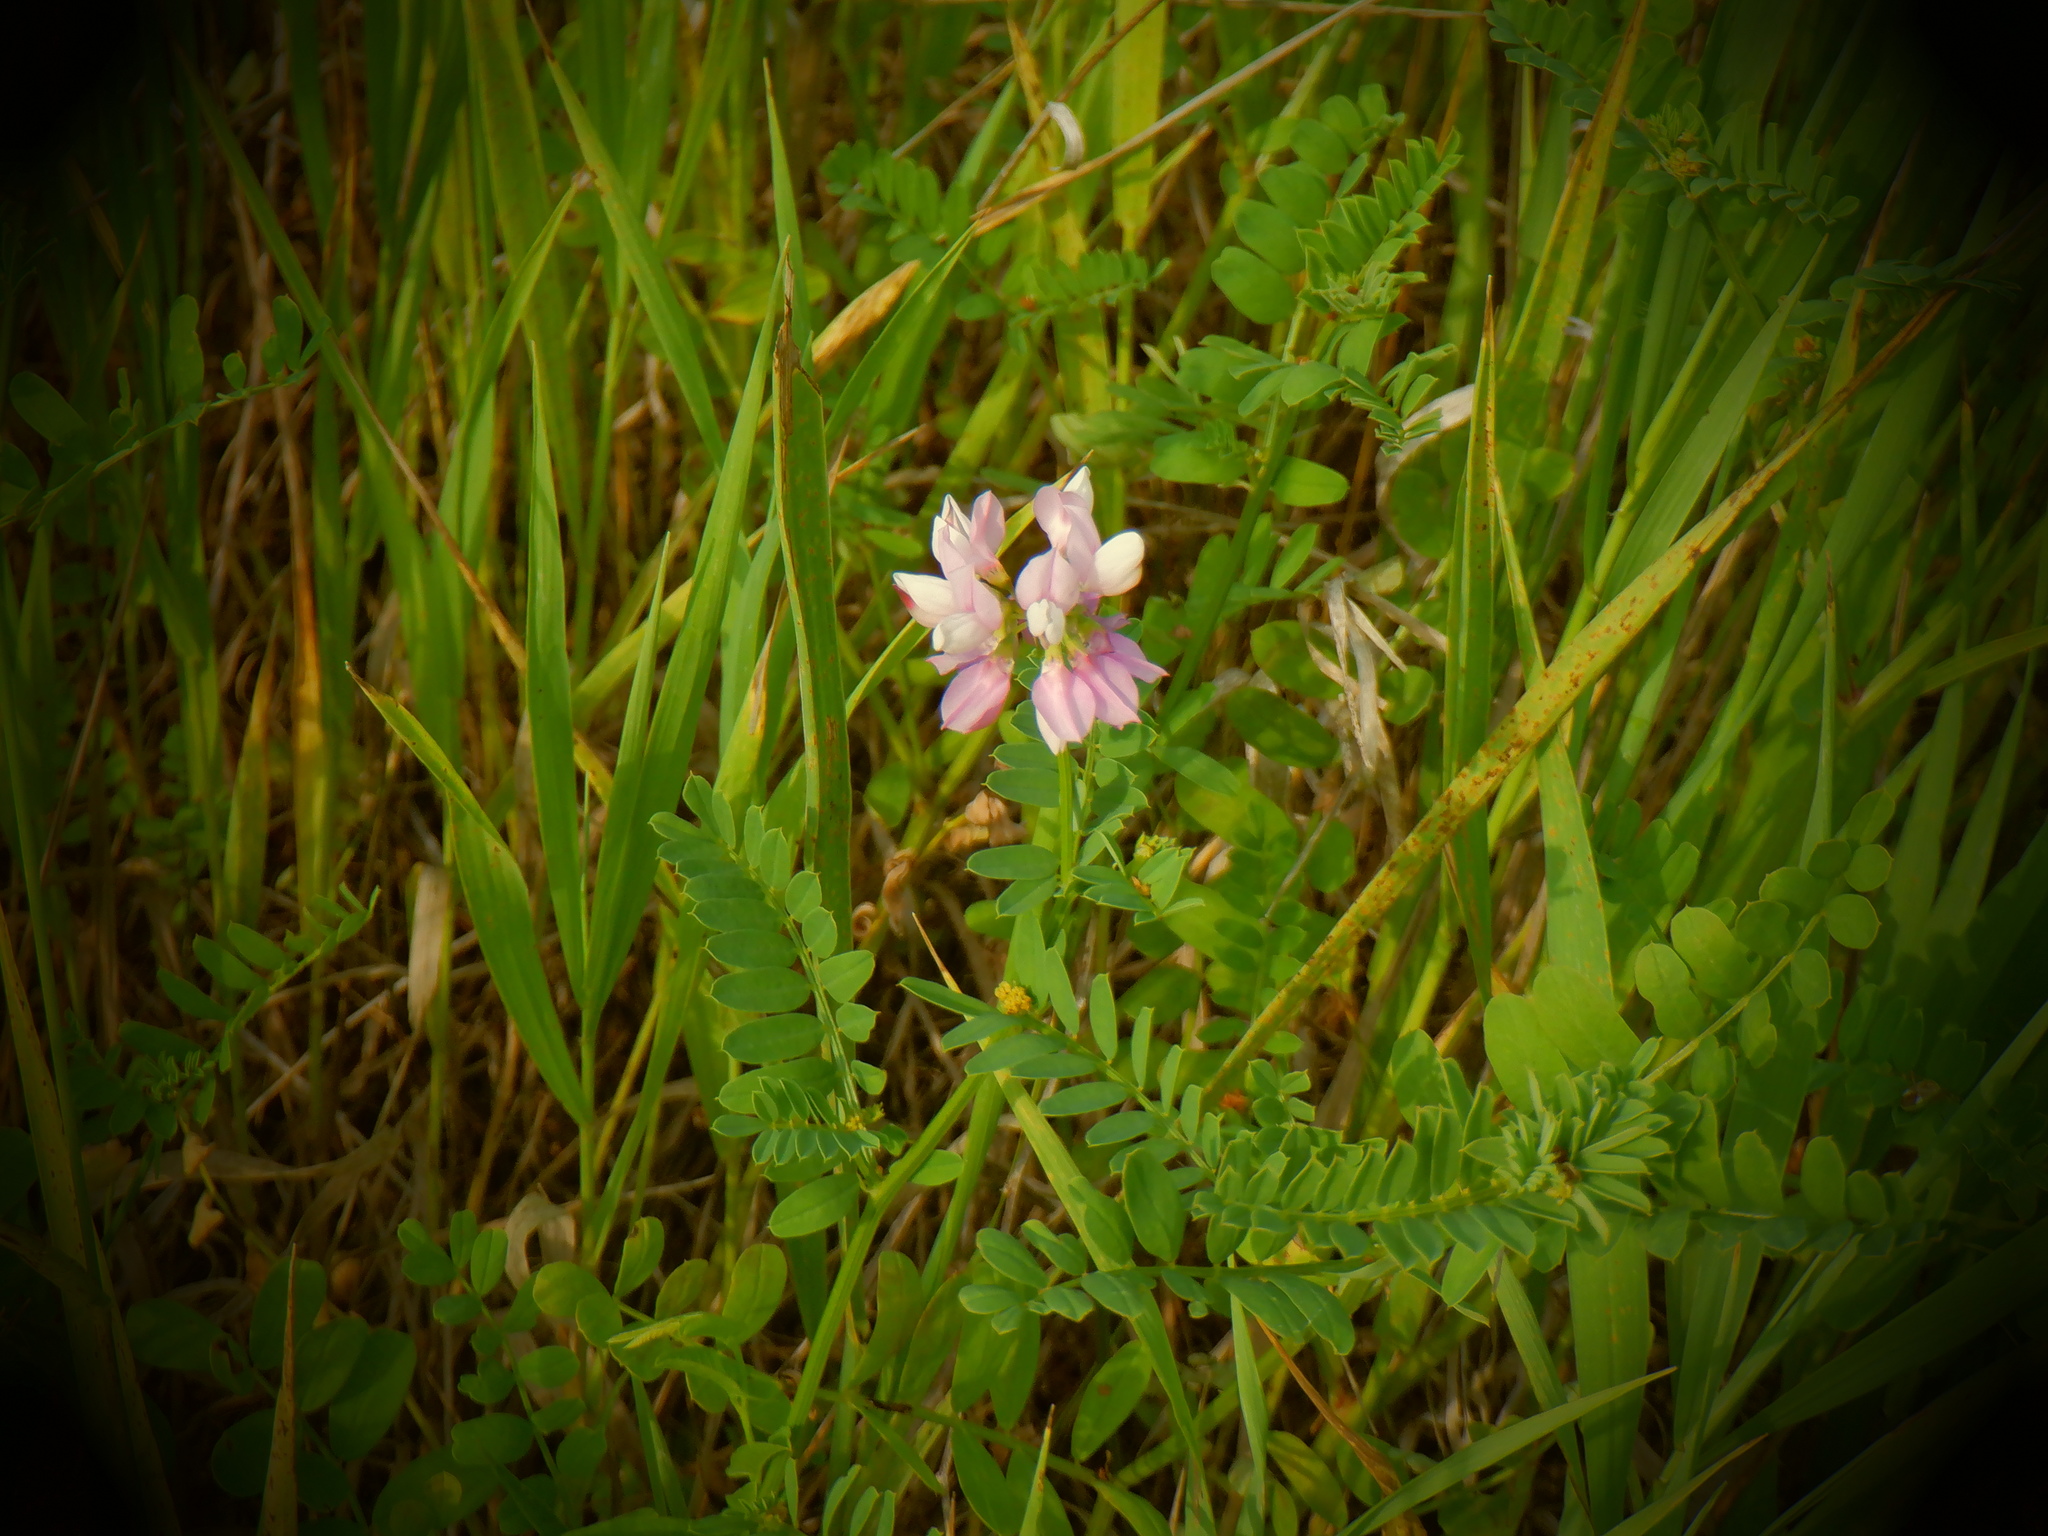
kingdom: Plantae
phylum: Tracheophyta
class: Magnoliopsida
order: Fabales
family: Fabaceae
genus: Coronilla
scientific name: Coronilla varia
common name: Crownvetch
